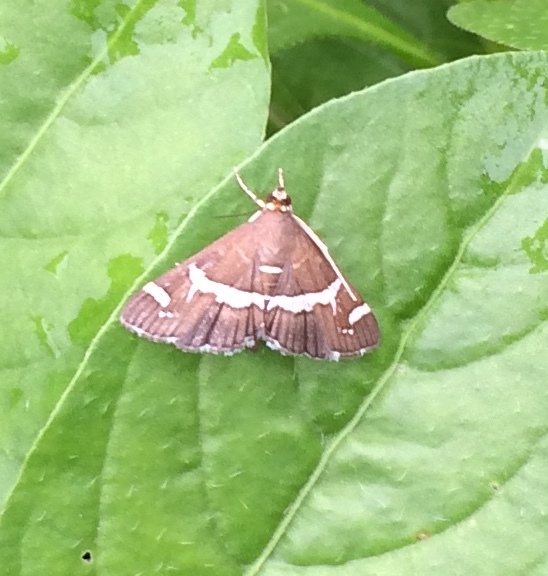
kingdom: Animalia
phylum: Arthropoda
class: Insecta
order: Lepidoptera
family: Crambidae
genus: Spoladea
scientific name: Spoladea recurvalis
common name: Beet webworm moth
